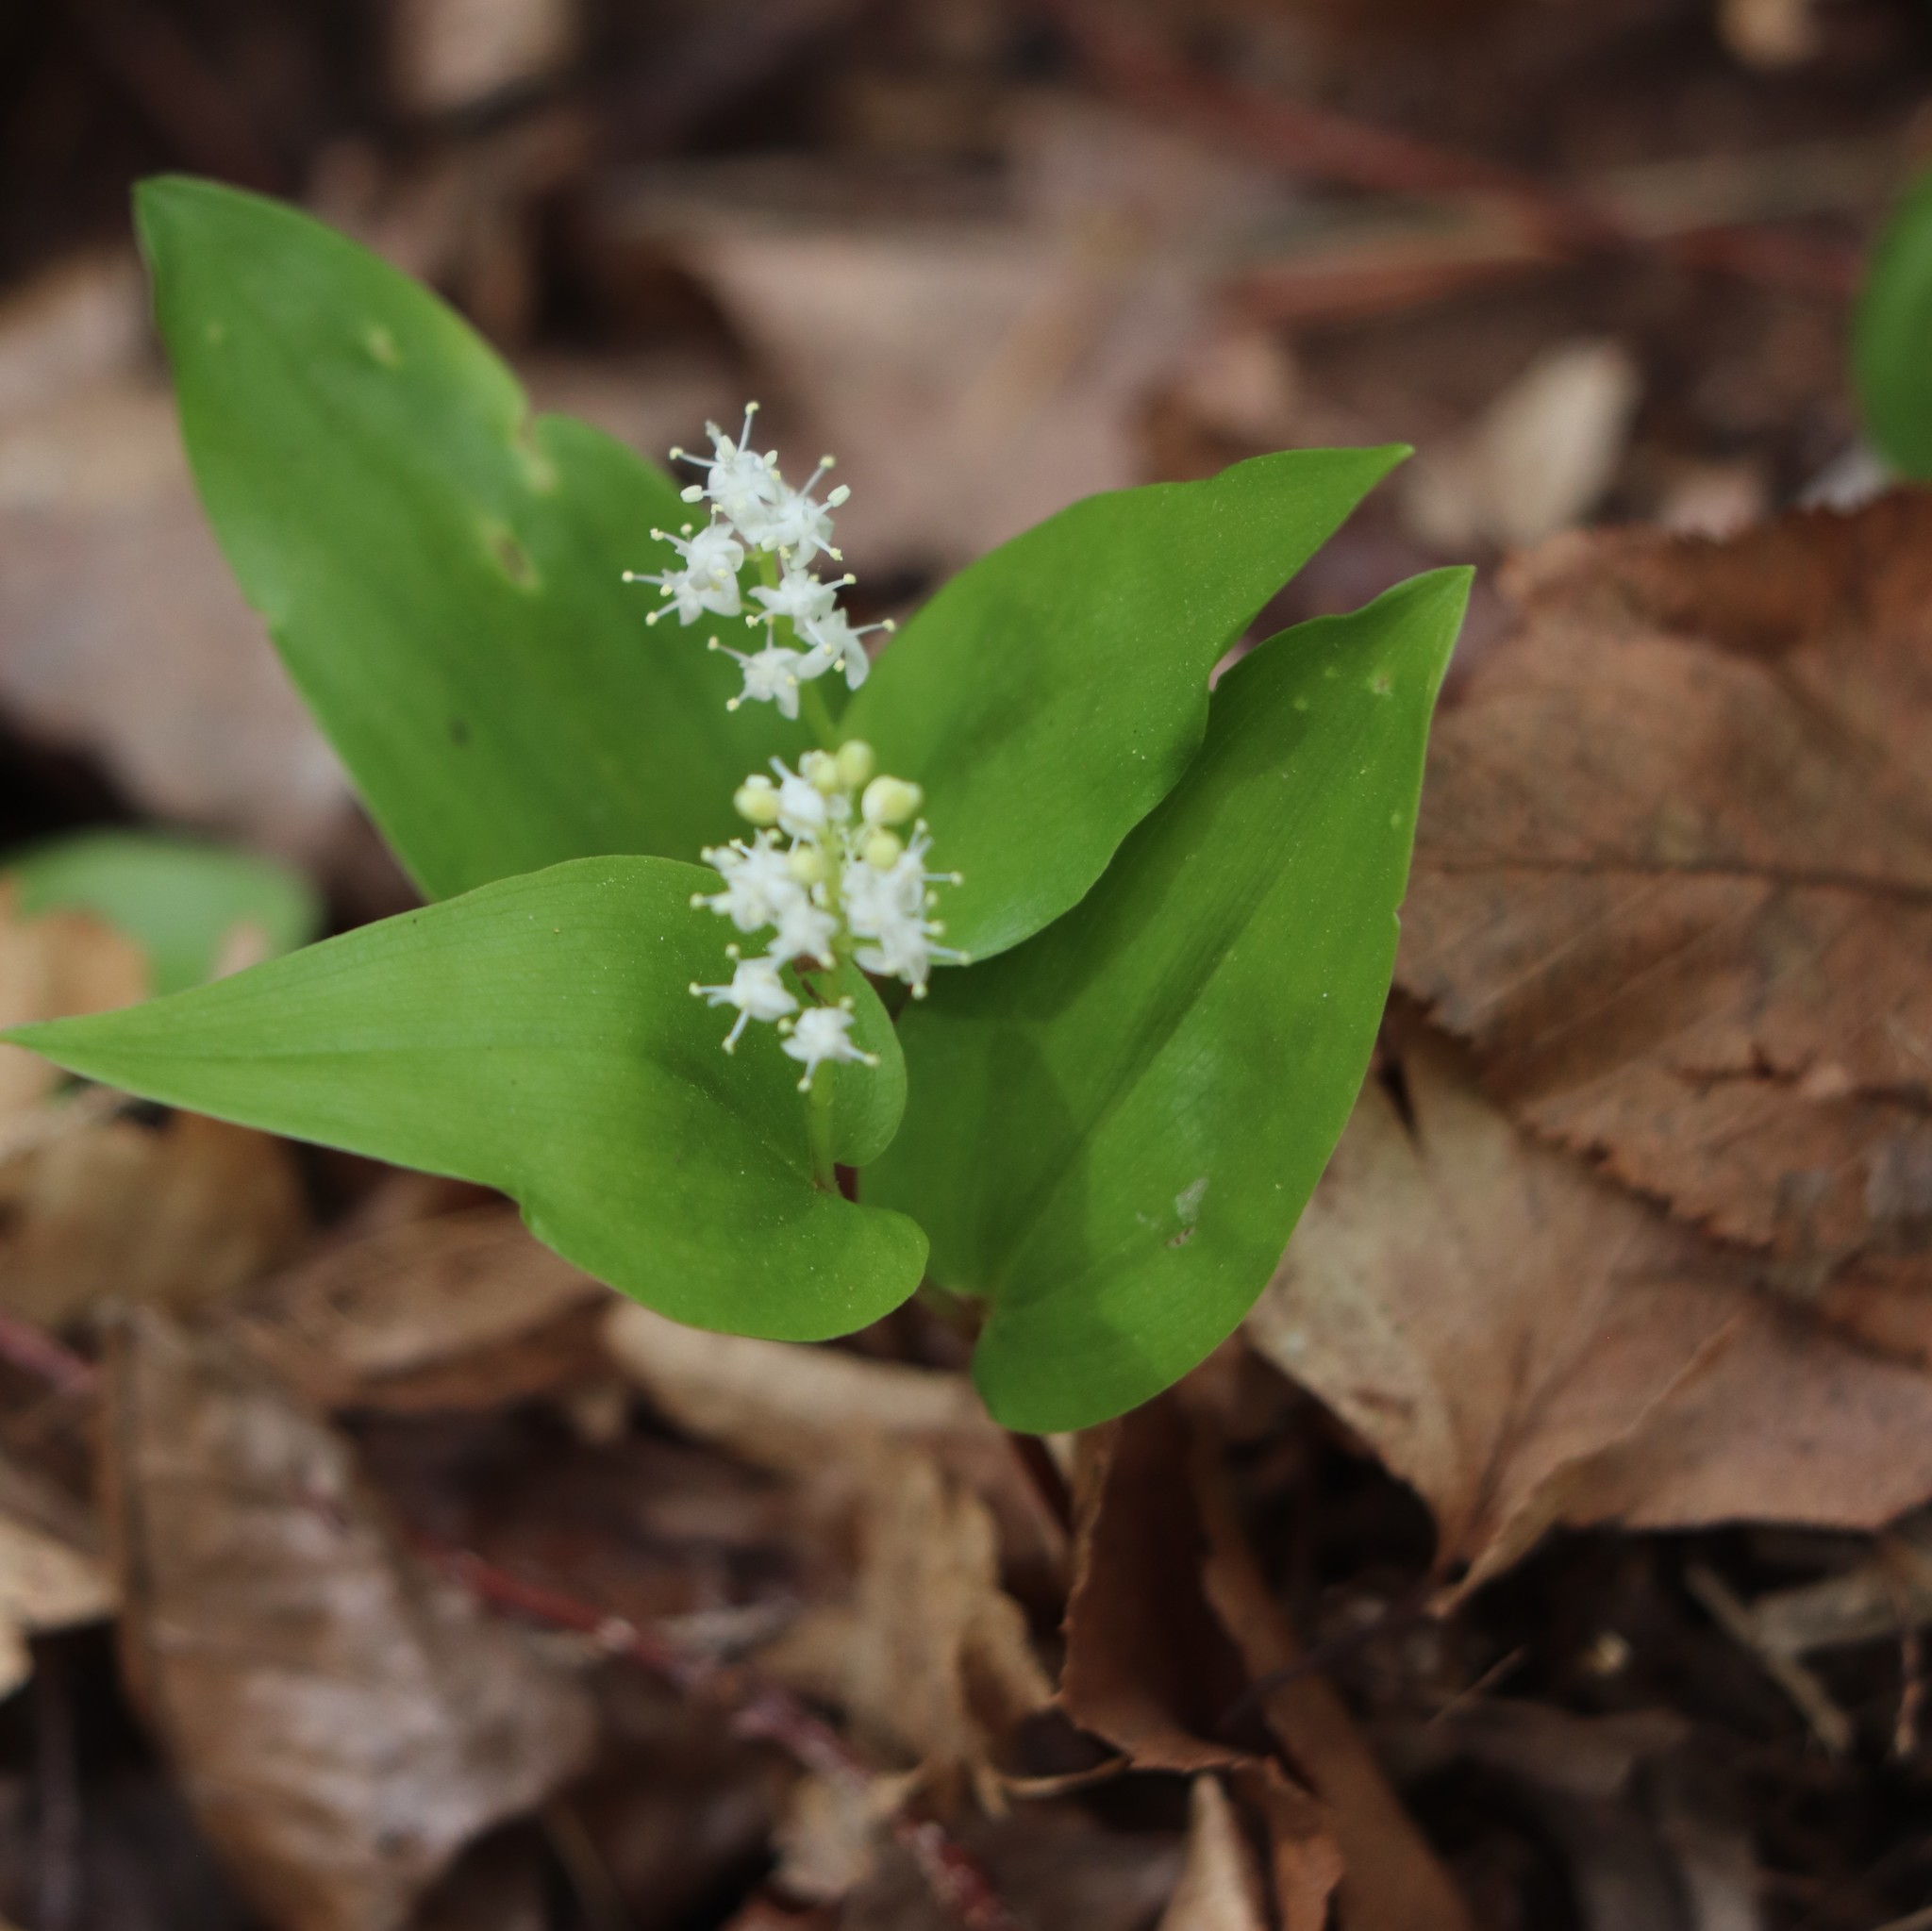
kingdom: Plantae
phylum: Tracheophyta
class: Liliopsida
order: Asparagales
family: Asparagaceae
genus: Maianthemum
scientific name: Maianthemum canadense
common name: False lily-of-the-valley
